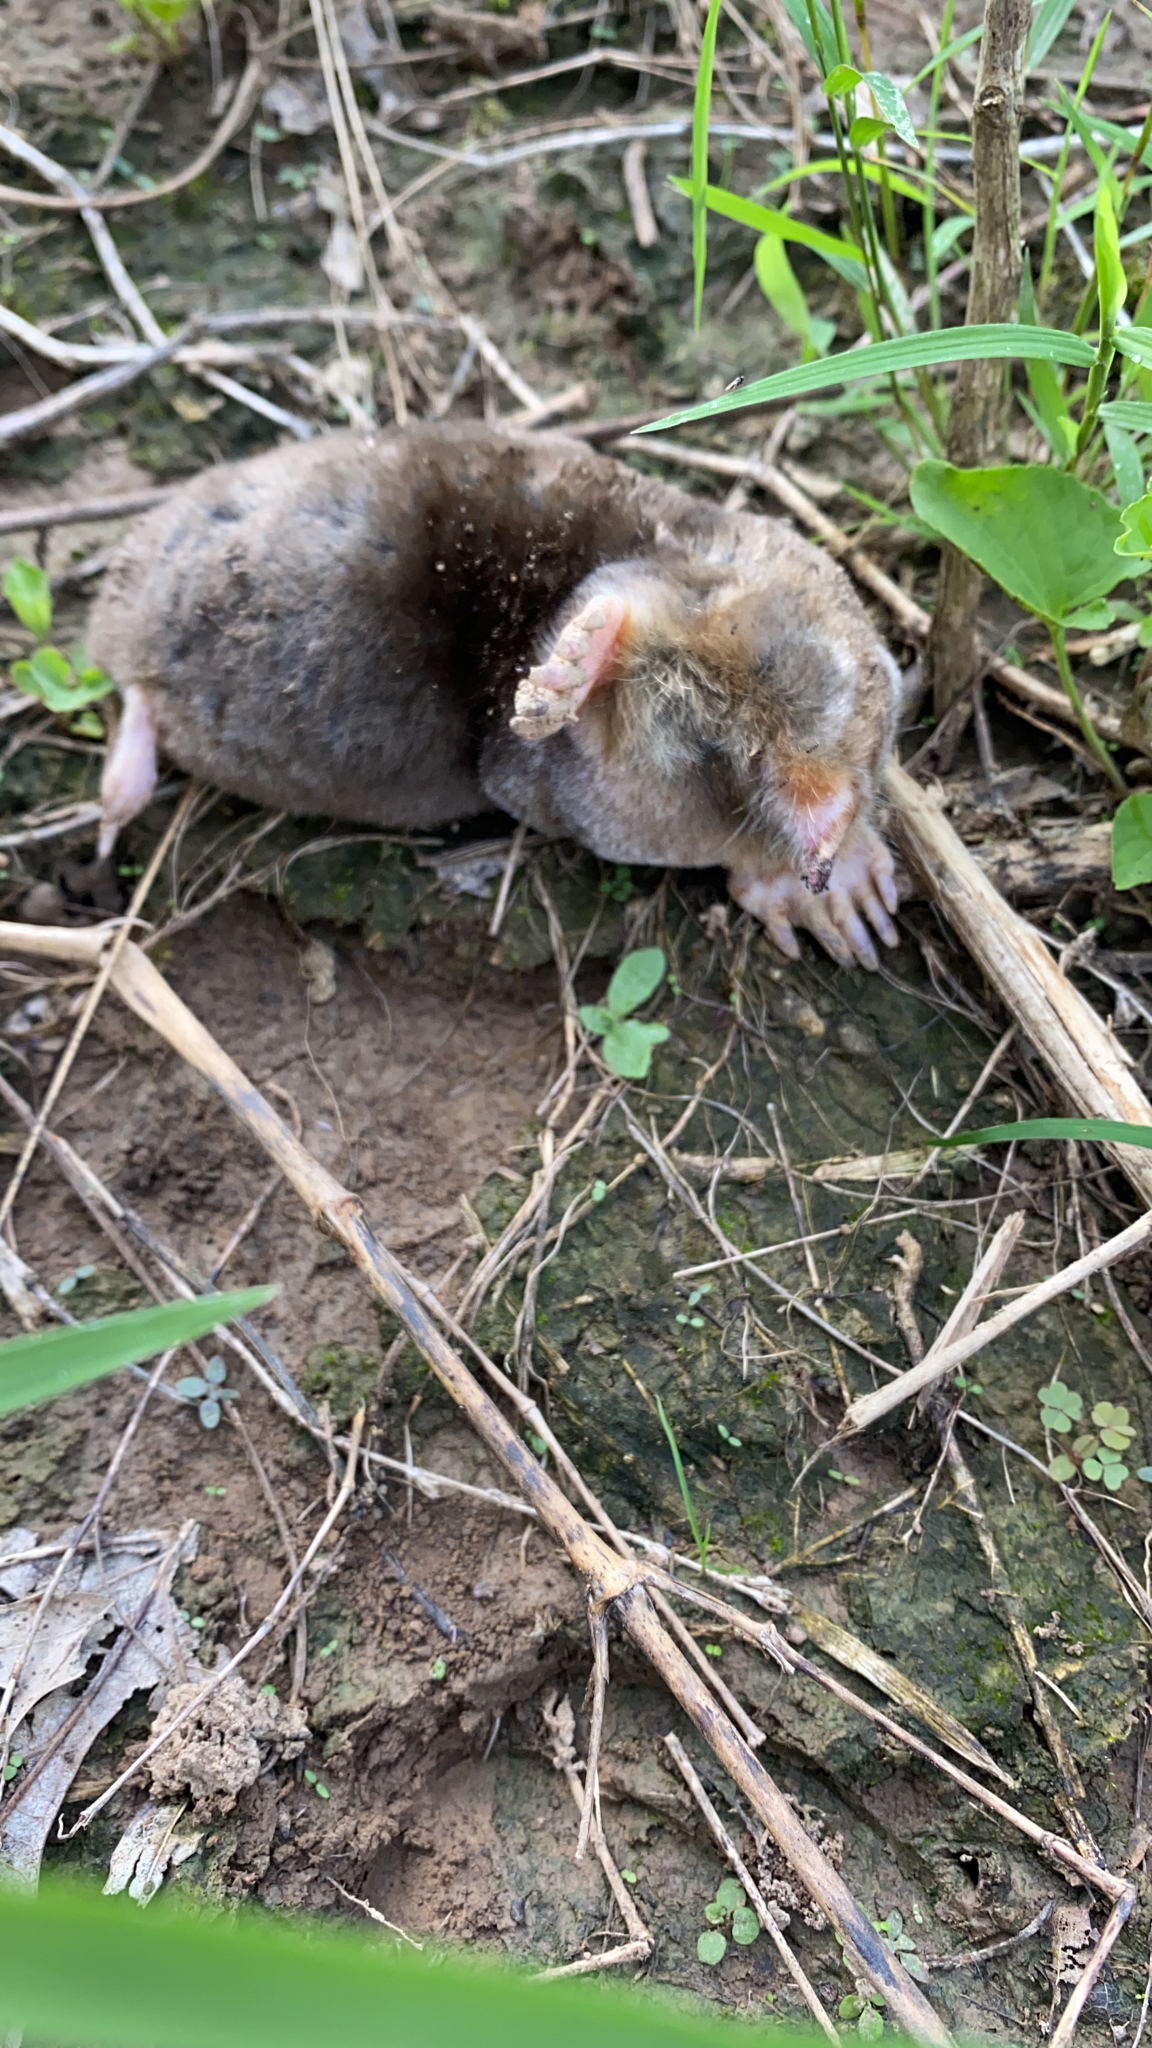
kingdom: Animalia
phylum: Chordata
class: Mammalia
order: Soricomorpha
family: Talpidae
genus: Scalopus
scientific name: Scalopus aquaticus
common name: Eastern mole
